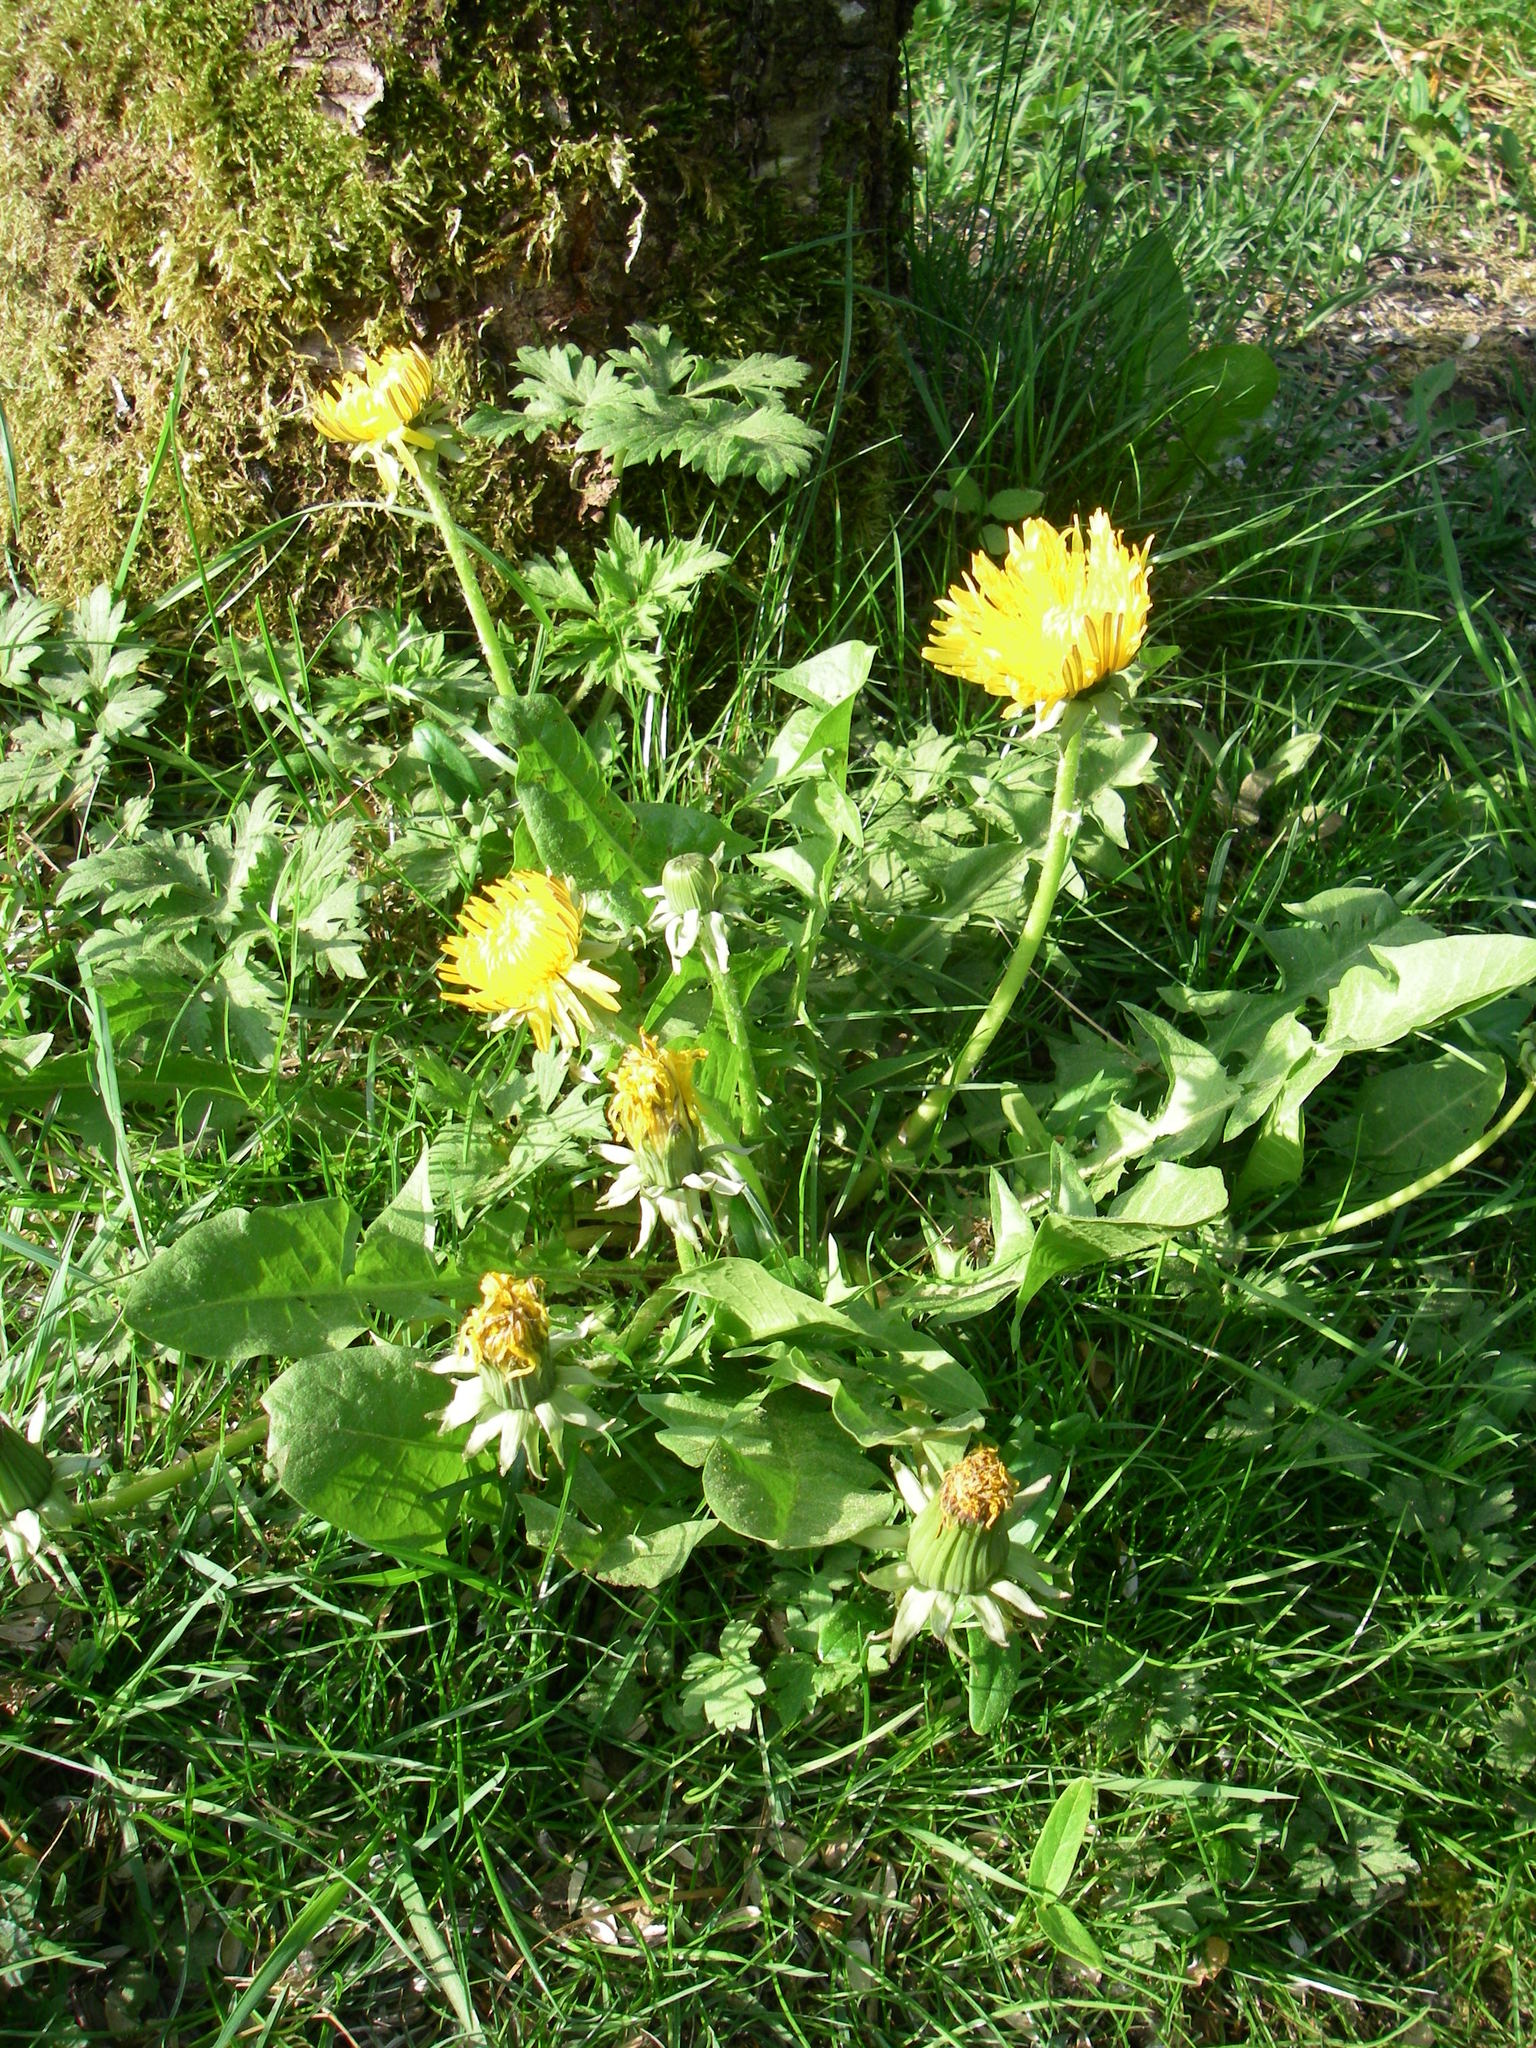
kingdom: Plantae
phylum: Tracheophyta
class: Magnoliopsida
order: Asterales
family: Asteraceae
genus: Taraxacum
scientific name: Taraxacum officinale
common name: Common dandelion
